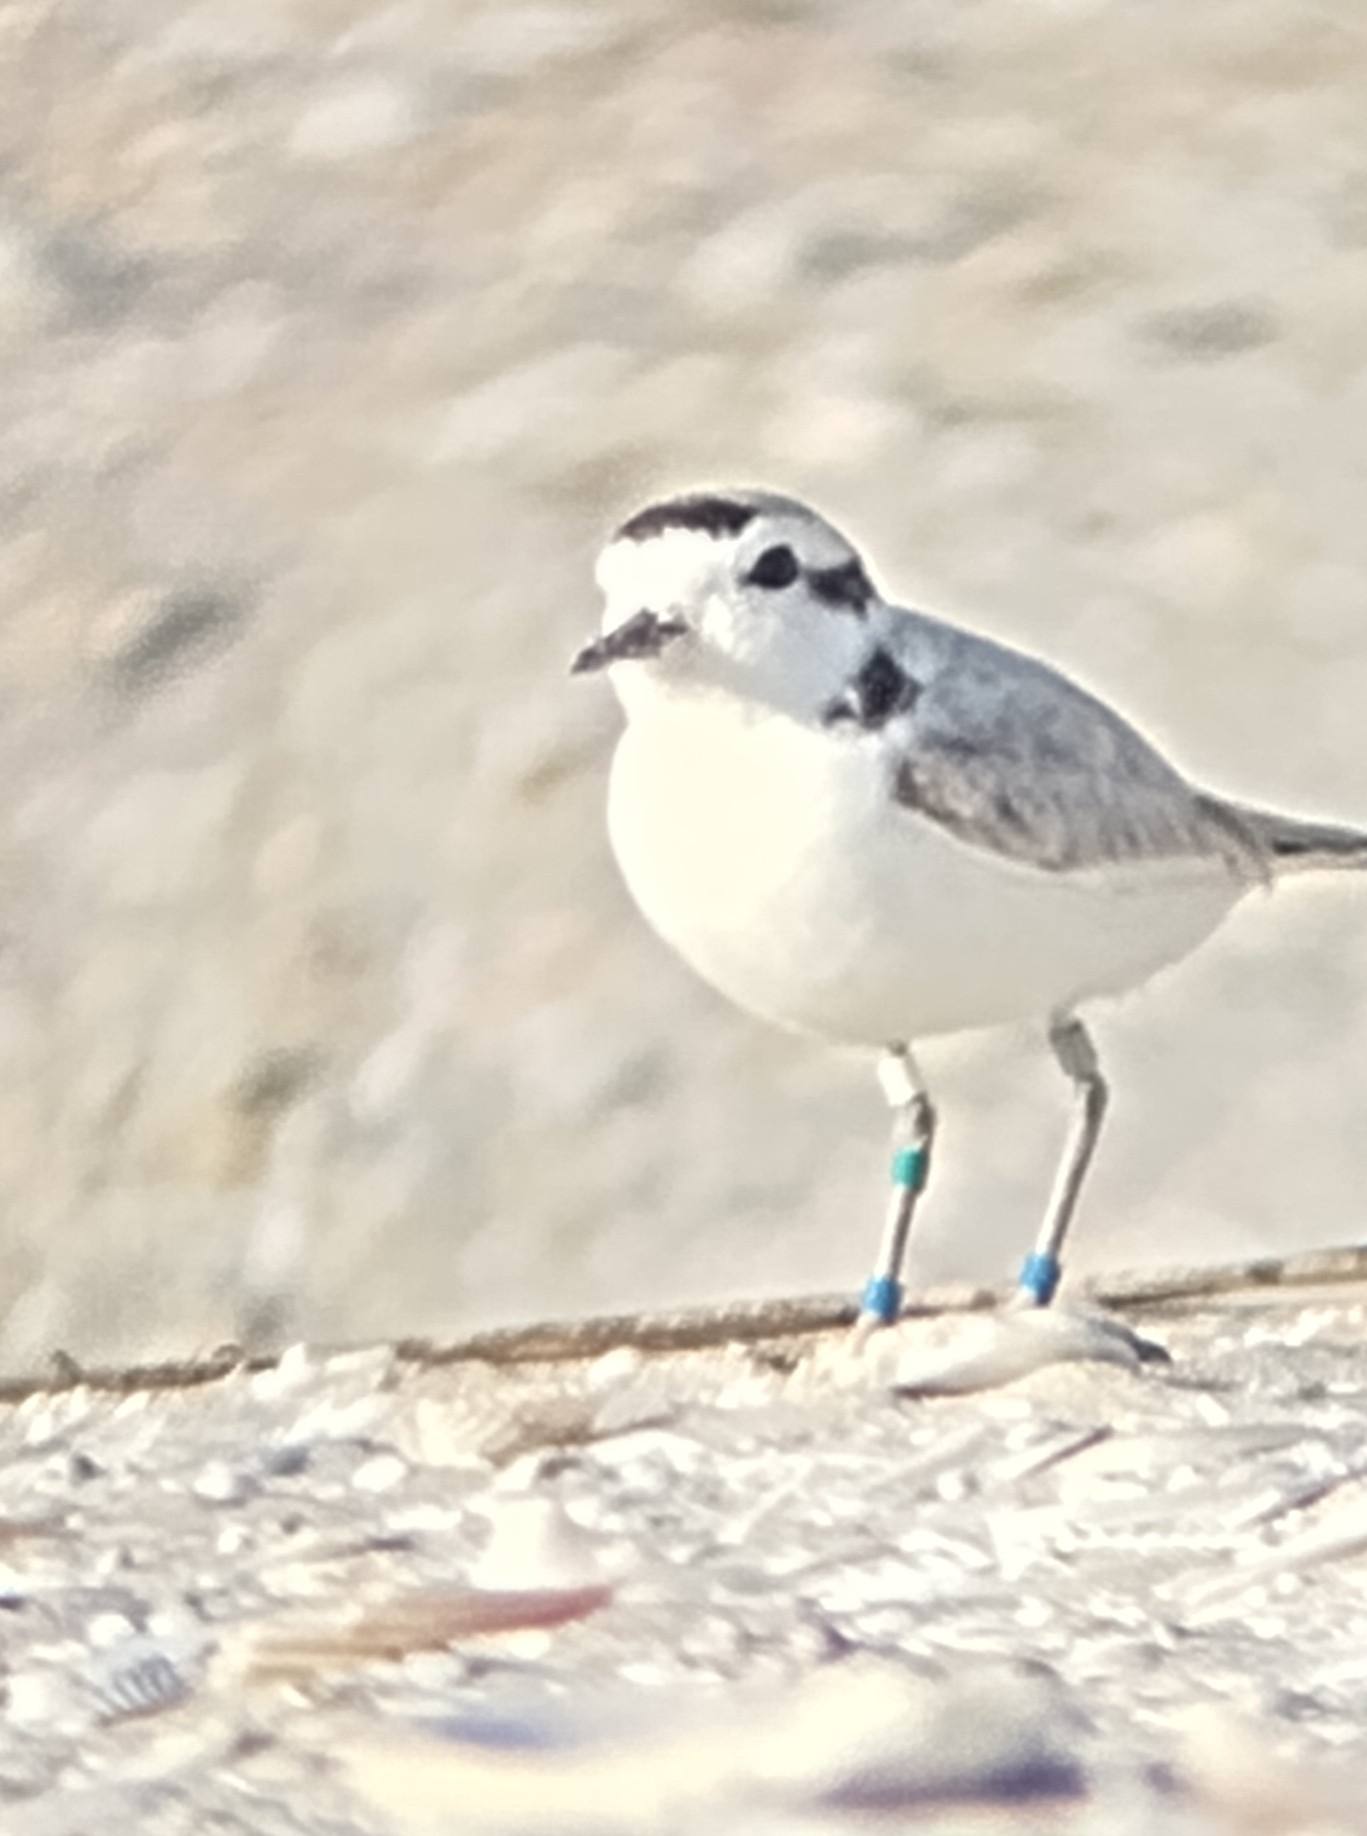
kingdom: Animalia
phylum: Chordata
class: Aves
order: Charadriiformes
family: Charadriidae
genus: Anarhynchus
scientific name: Anarhynchus
